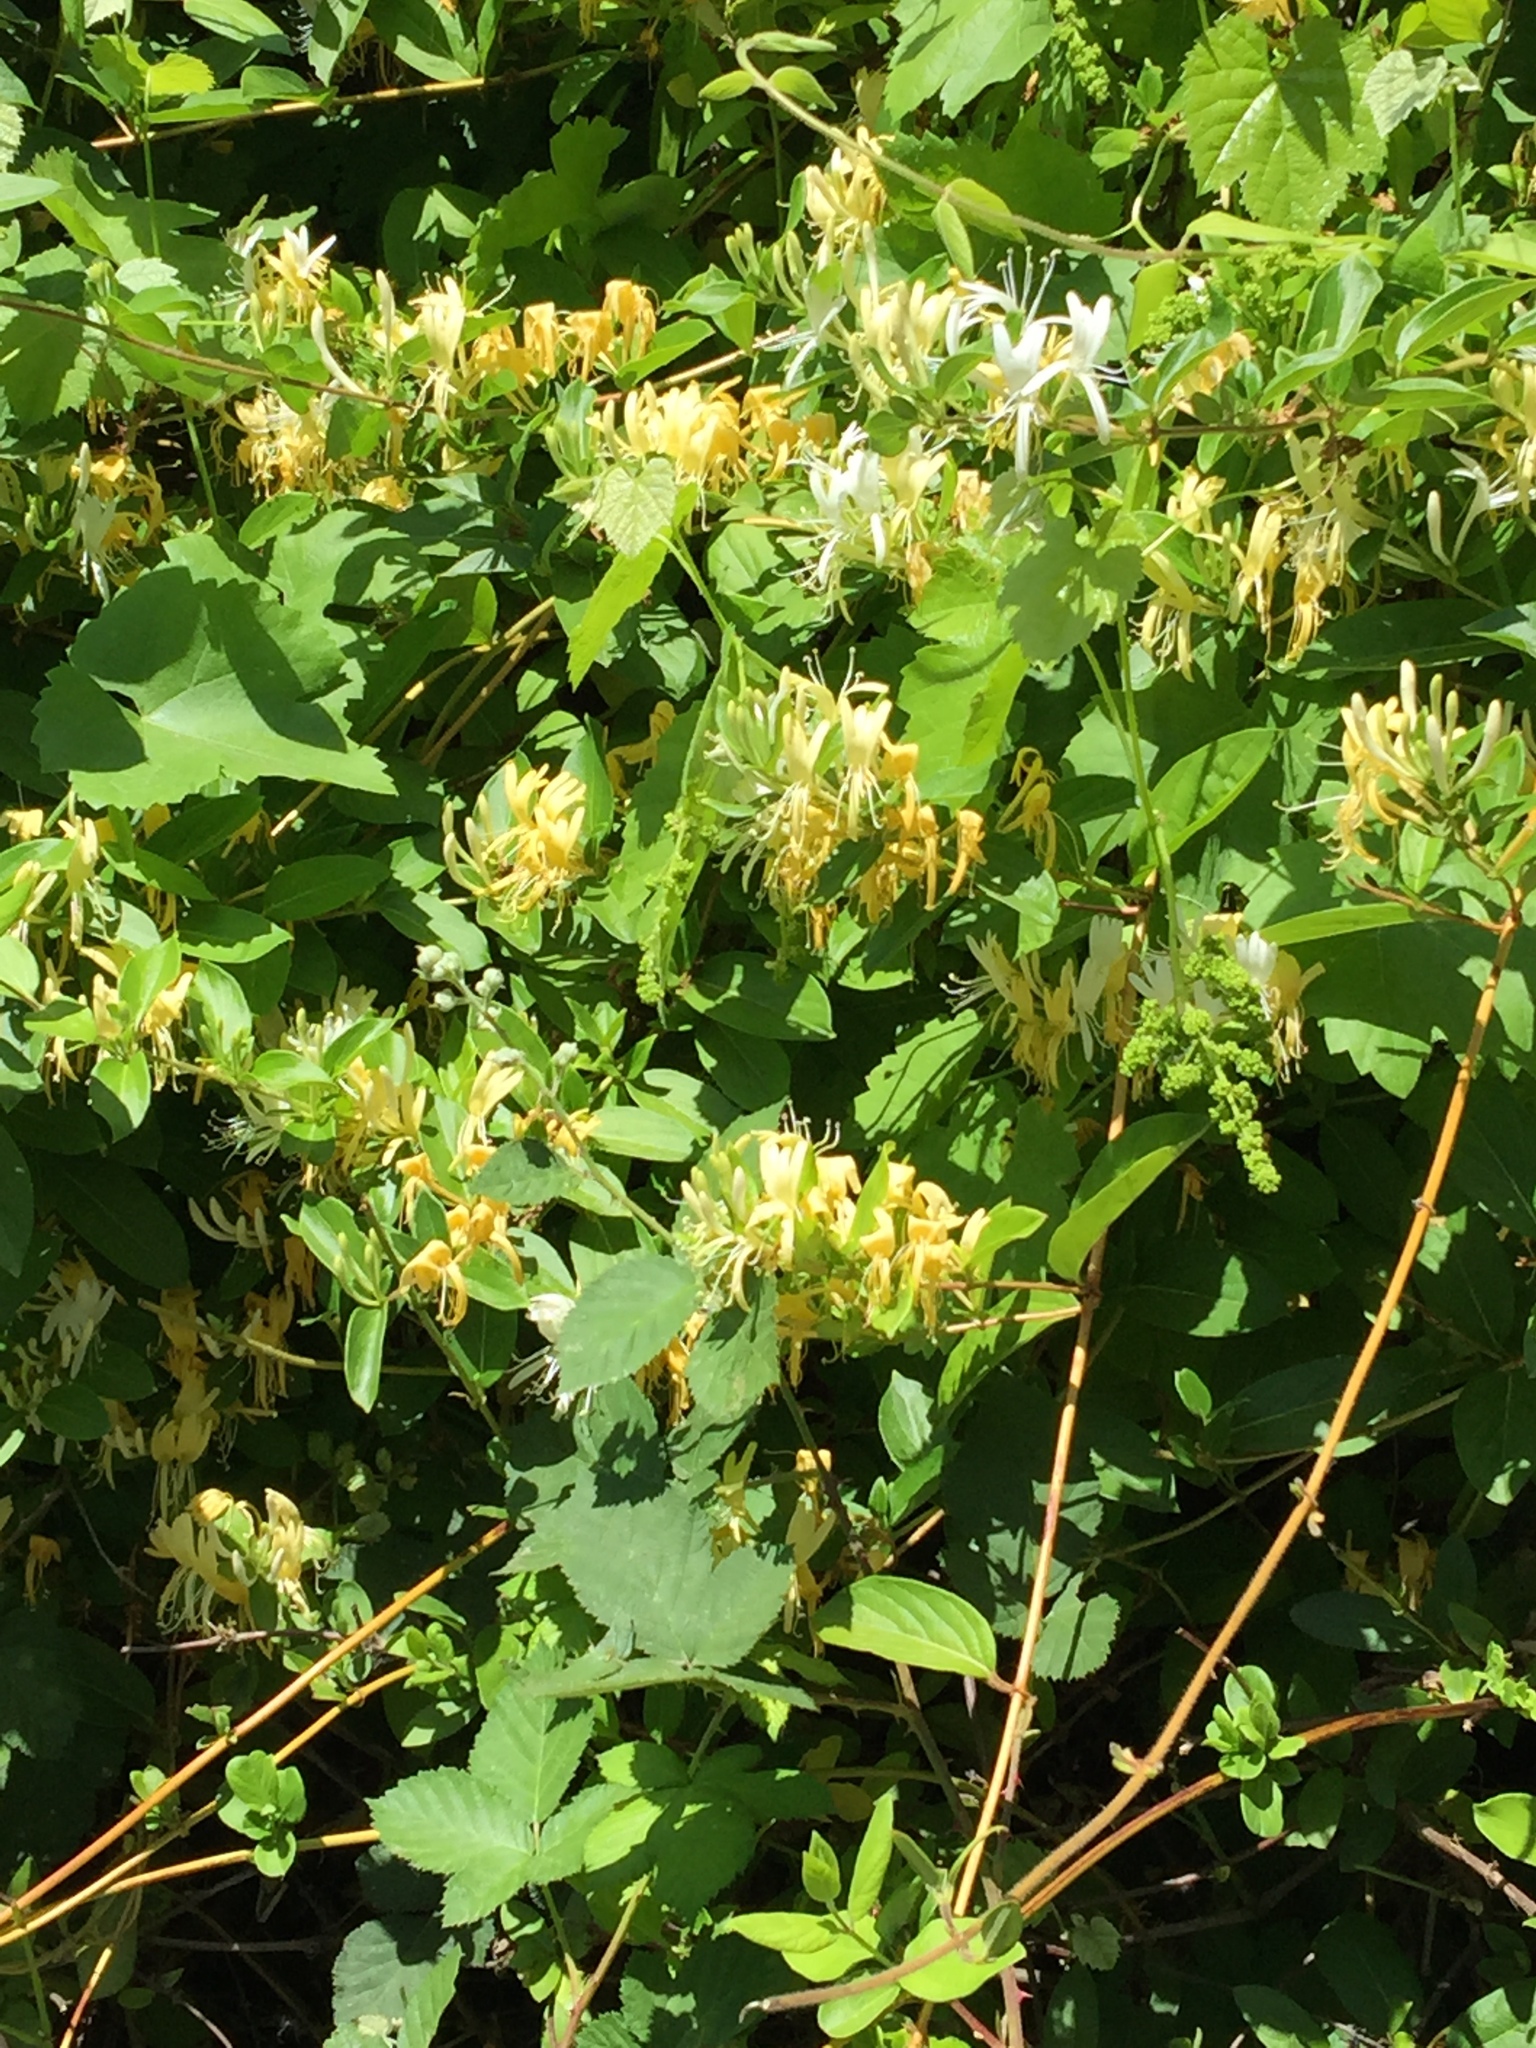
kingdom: Plantae
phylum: Tracheophyta
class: Magnoliopsida
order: Dipsacales
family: Caprifoliaceae
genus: Lonicera
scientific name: Lonicera japonica
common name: Japanese honeysuckle
